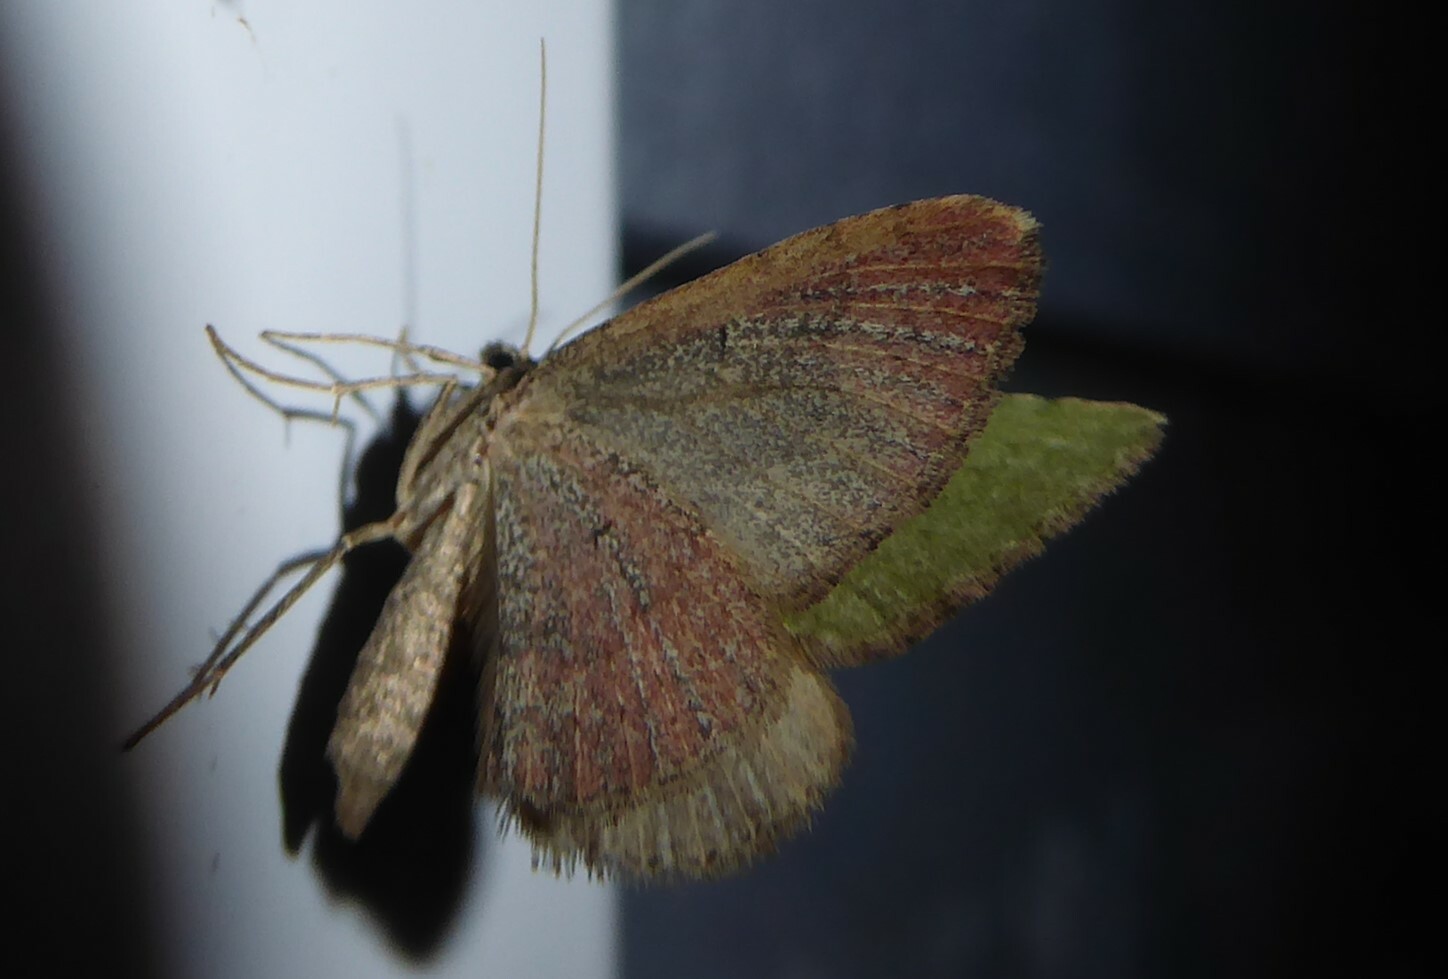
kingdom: Animalia
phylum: Arthropoda
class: Insecta
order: Lepidoptera
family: Geometridae
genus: Epyaxa
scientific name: Epyaxa rosearia
